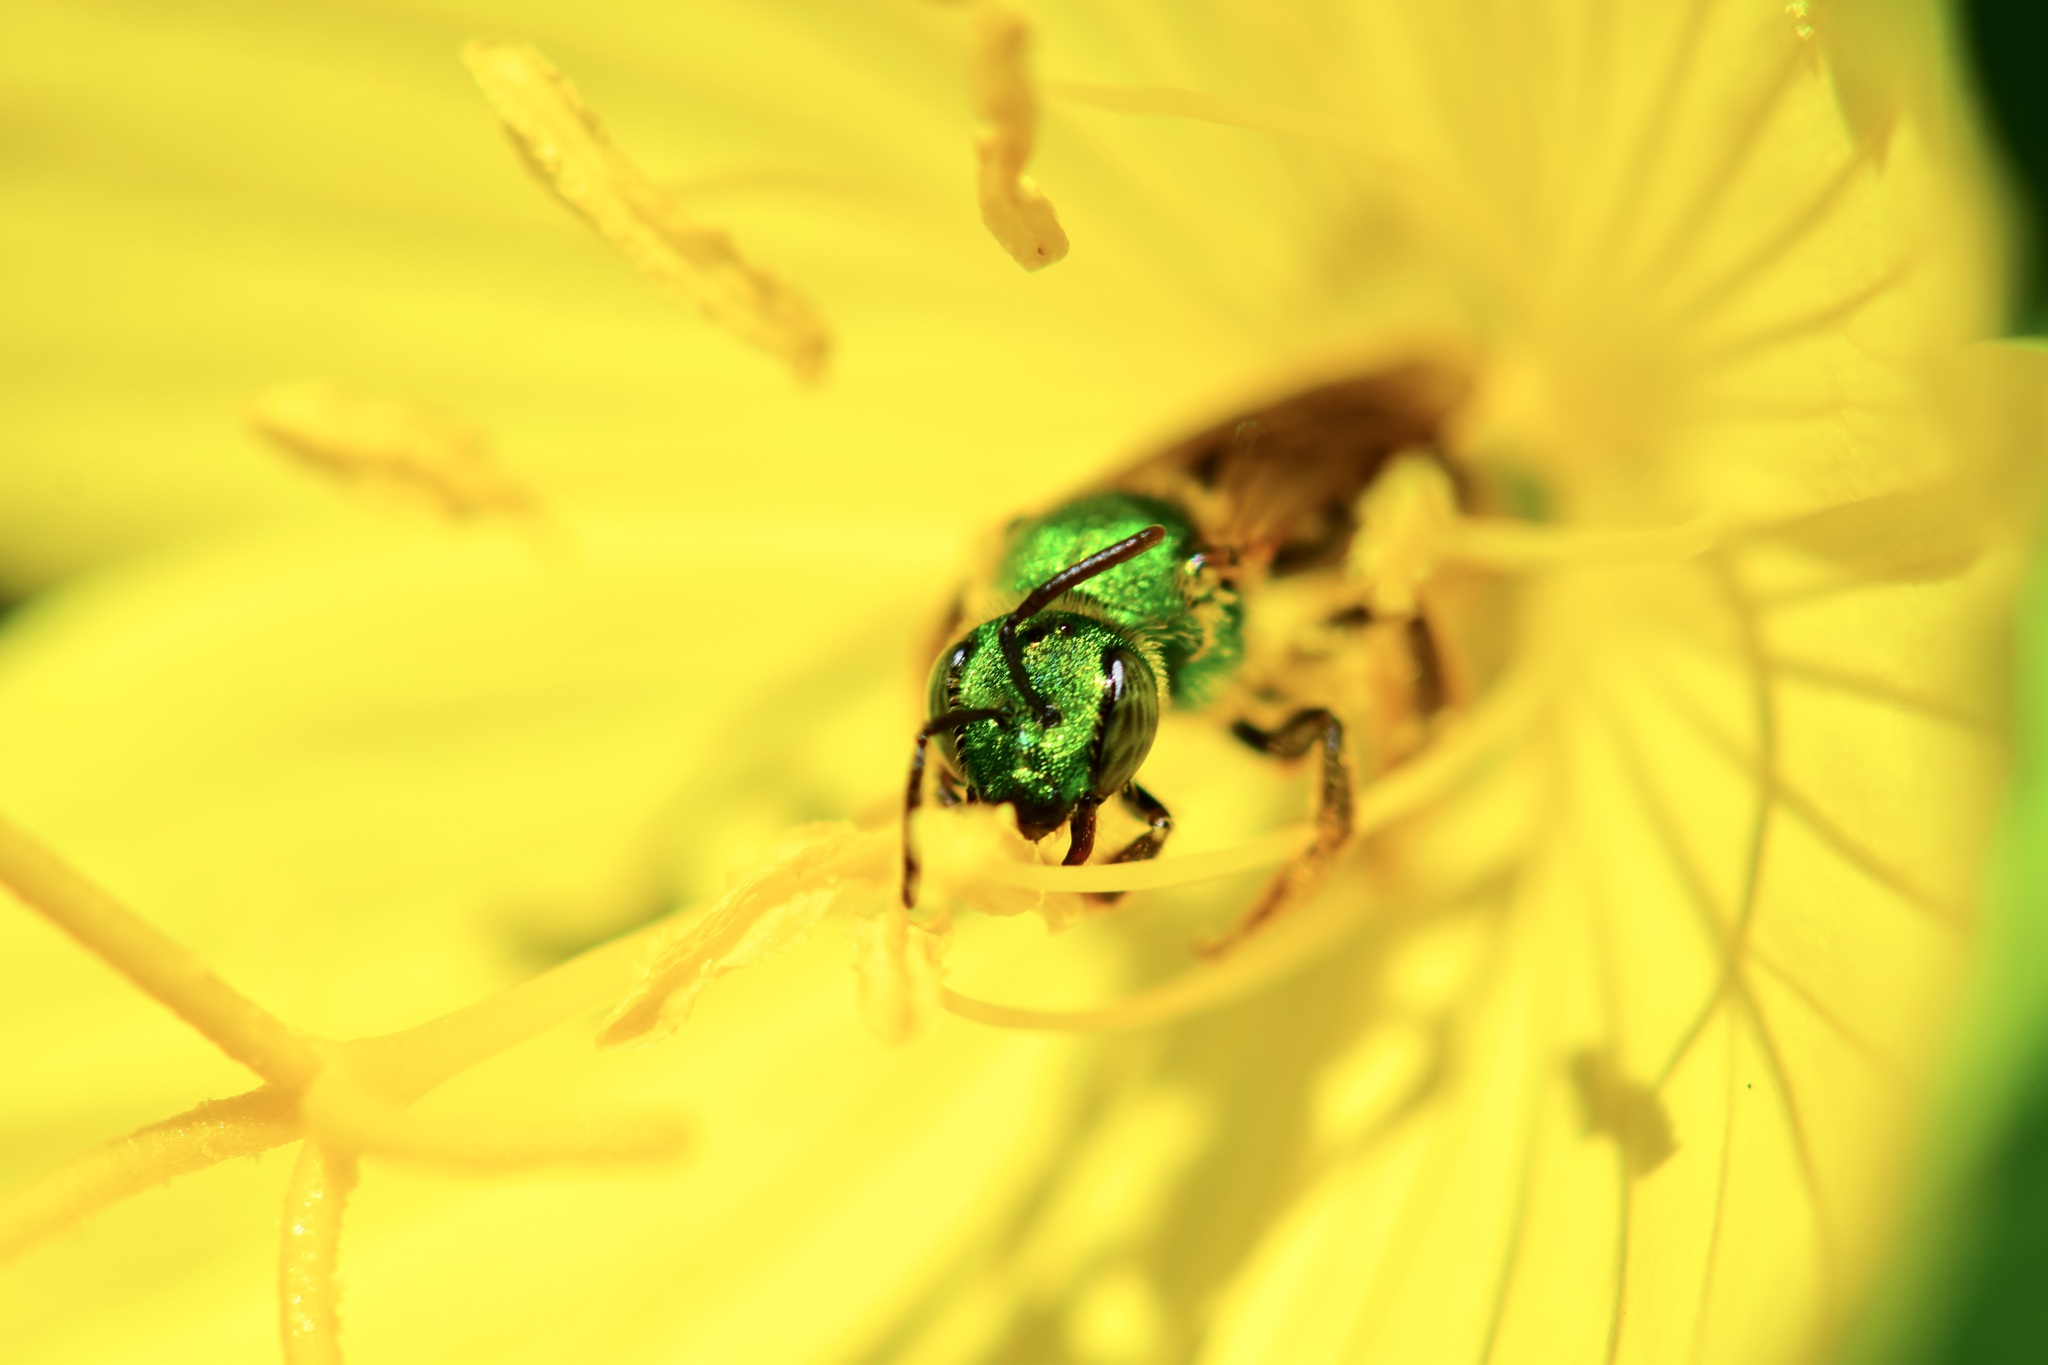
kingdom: Animalia
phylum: Arthropoda
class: Insecta
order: Hymenoptera
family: Halictidae
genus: Agapostemon
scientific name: Agapostemon virescens
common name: Bicolored striped sweat bee
